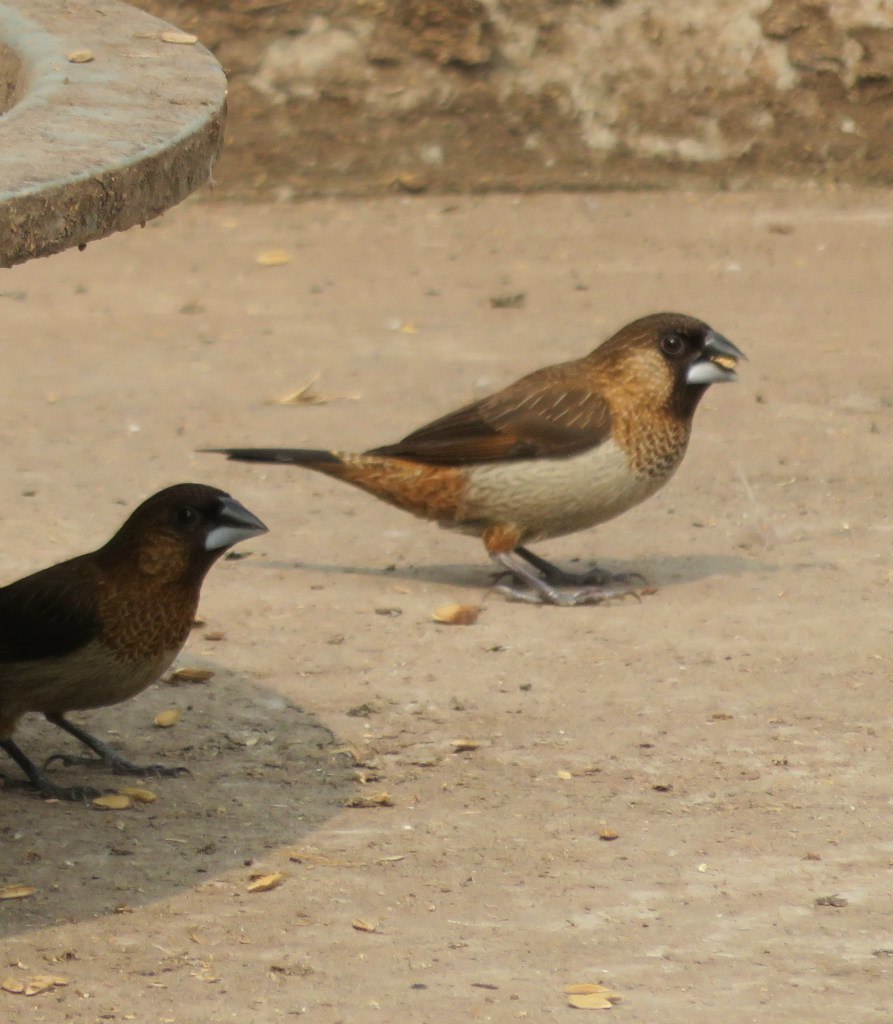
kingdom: Animalia
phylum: Chordata
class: Aves
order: Passeriformes
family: Estrildidae
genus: Lonchura
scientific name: Lonchura striata
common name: White-rumped munia
